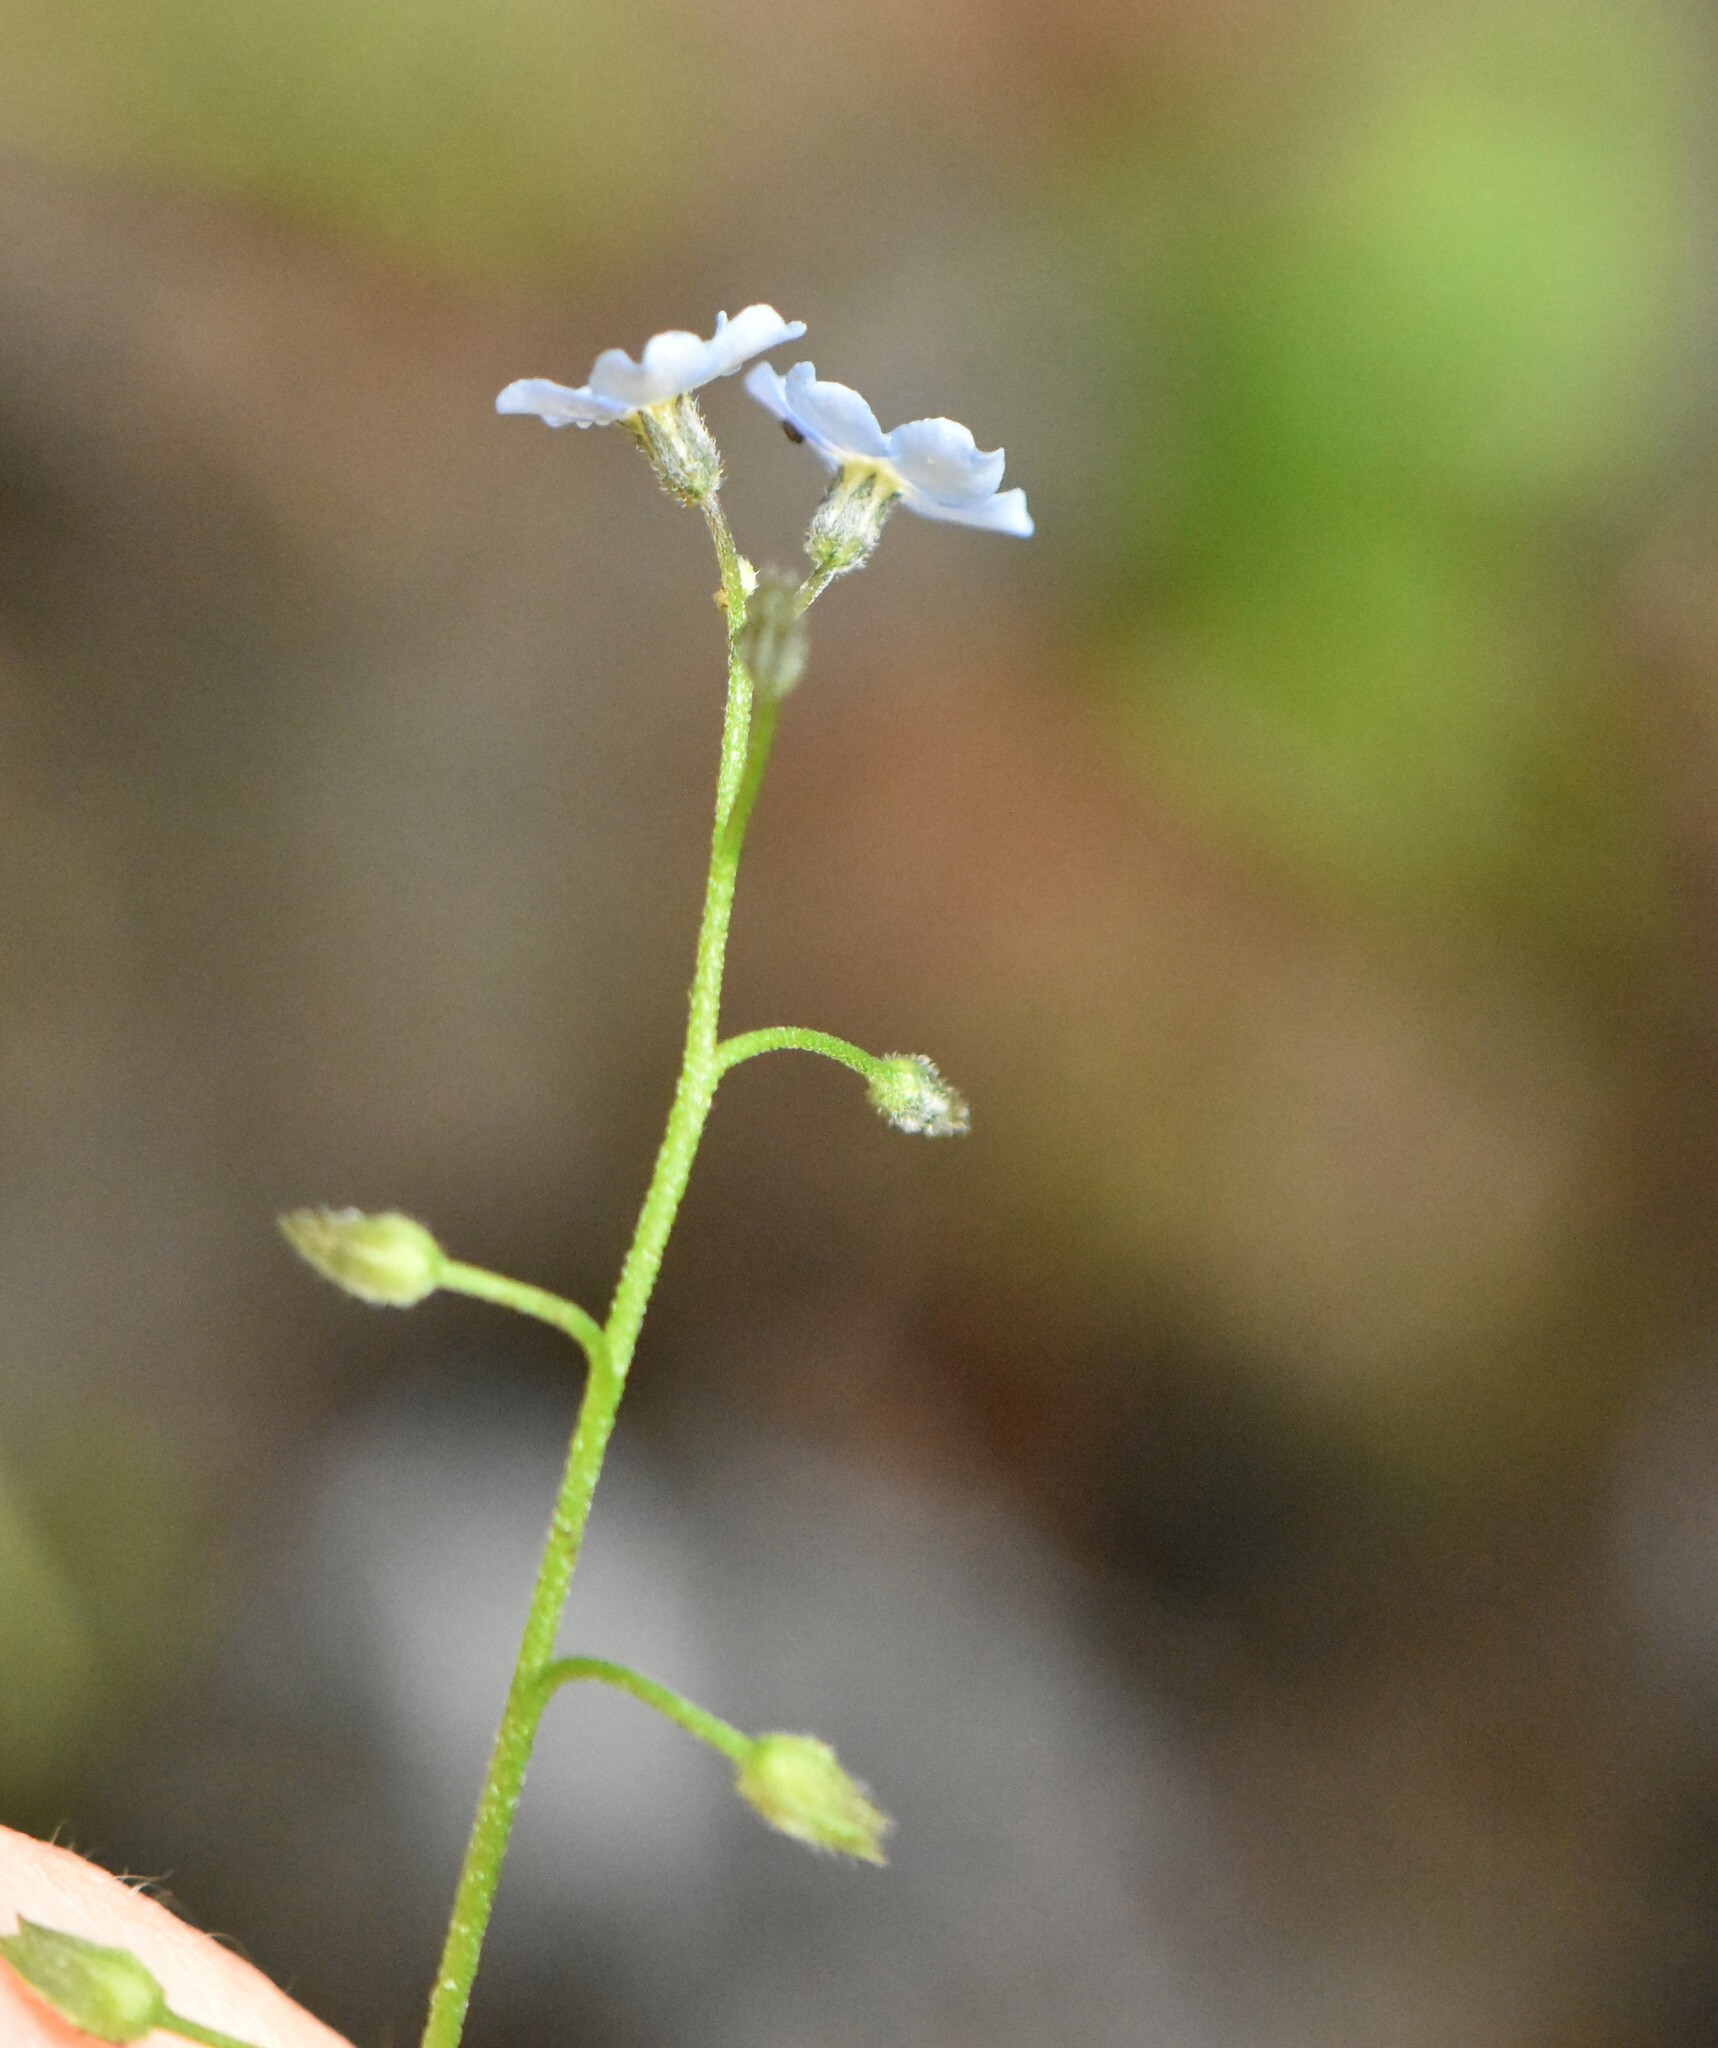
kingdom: Plantae
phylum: Tracheophyta
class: Magnoliopsida
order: Boraginales
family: Boraginaceae
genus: Myosotis
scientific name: Myosotis sylvatica
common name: Wood forget-me-not
